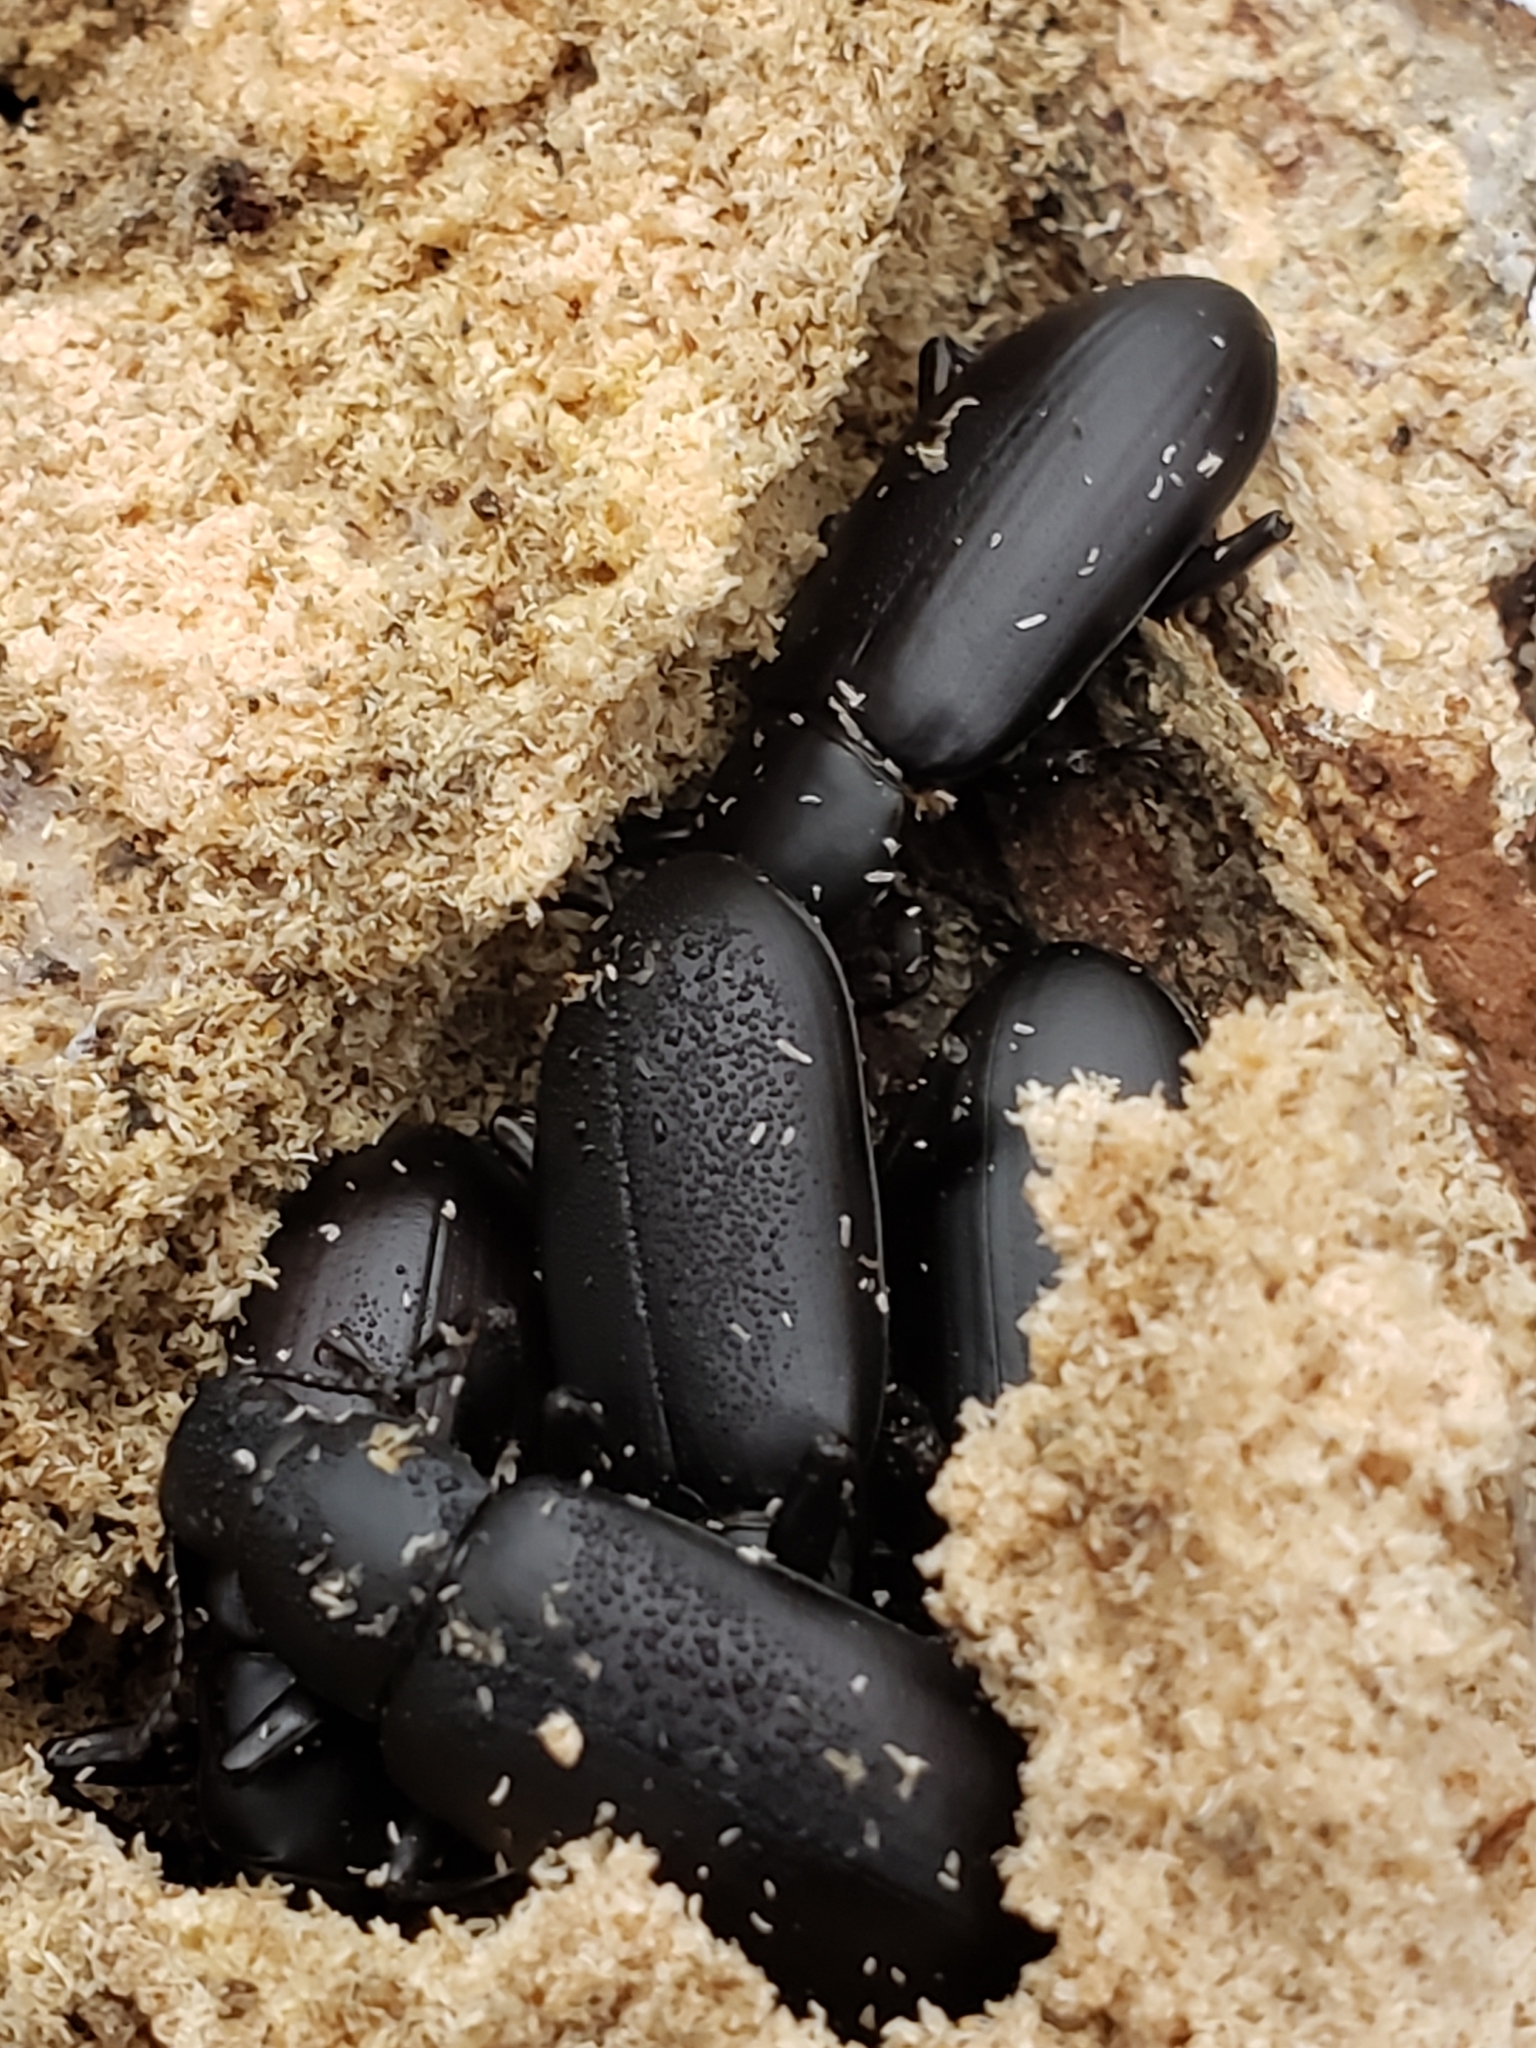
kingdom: Animalia
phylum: Arthropoda
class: Insecta
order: Coleoptera
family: Tenebrionidae
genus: Alobates
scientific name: Alobates
